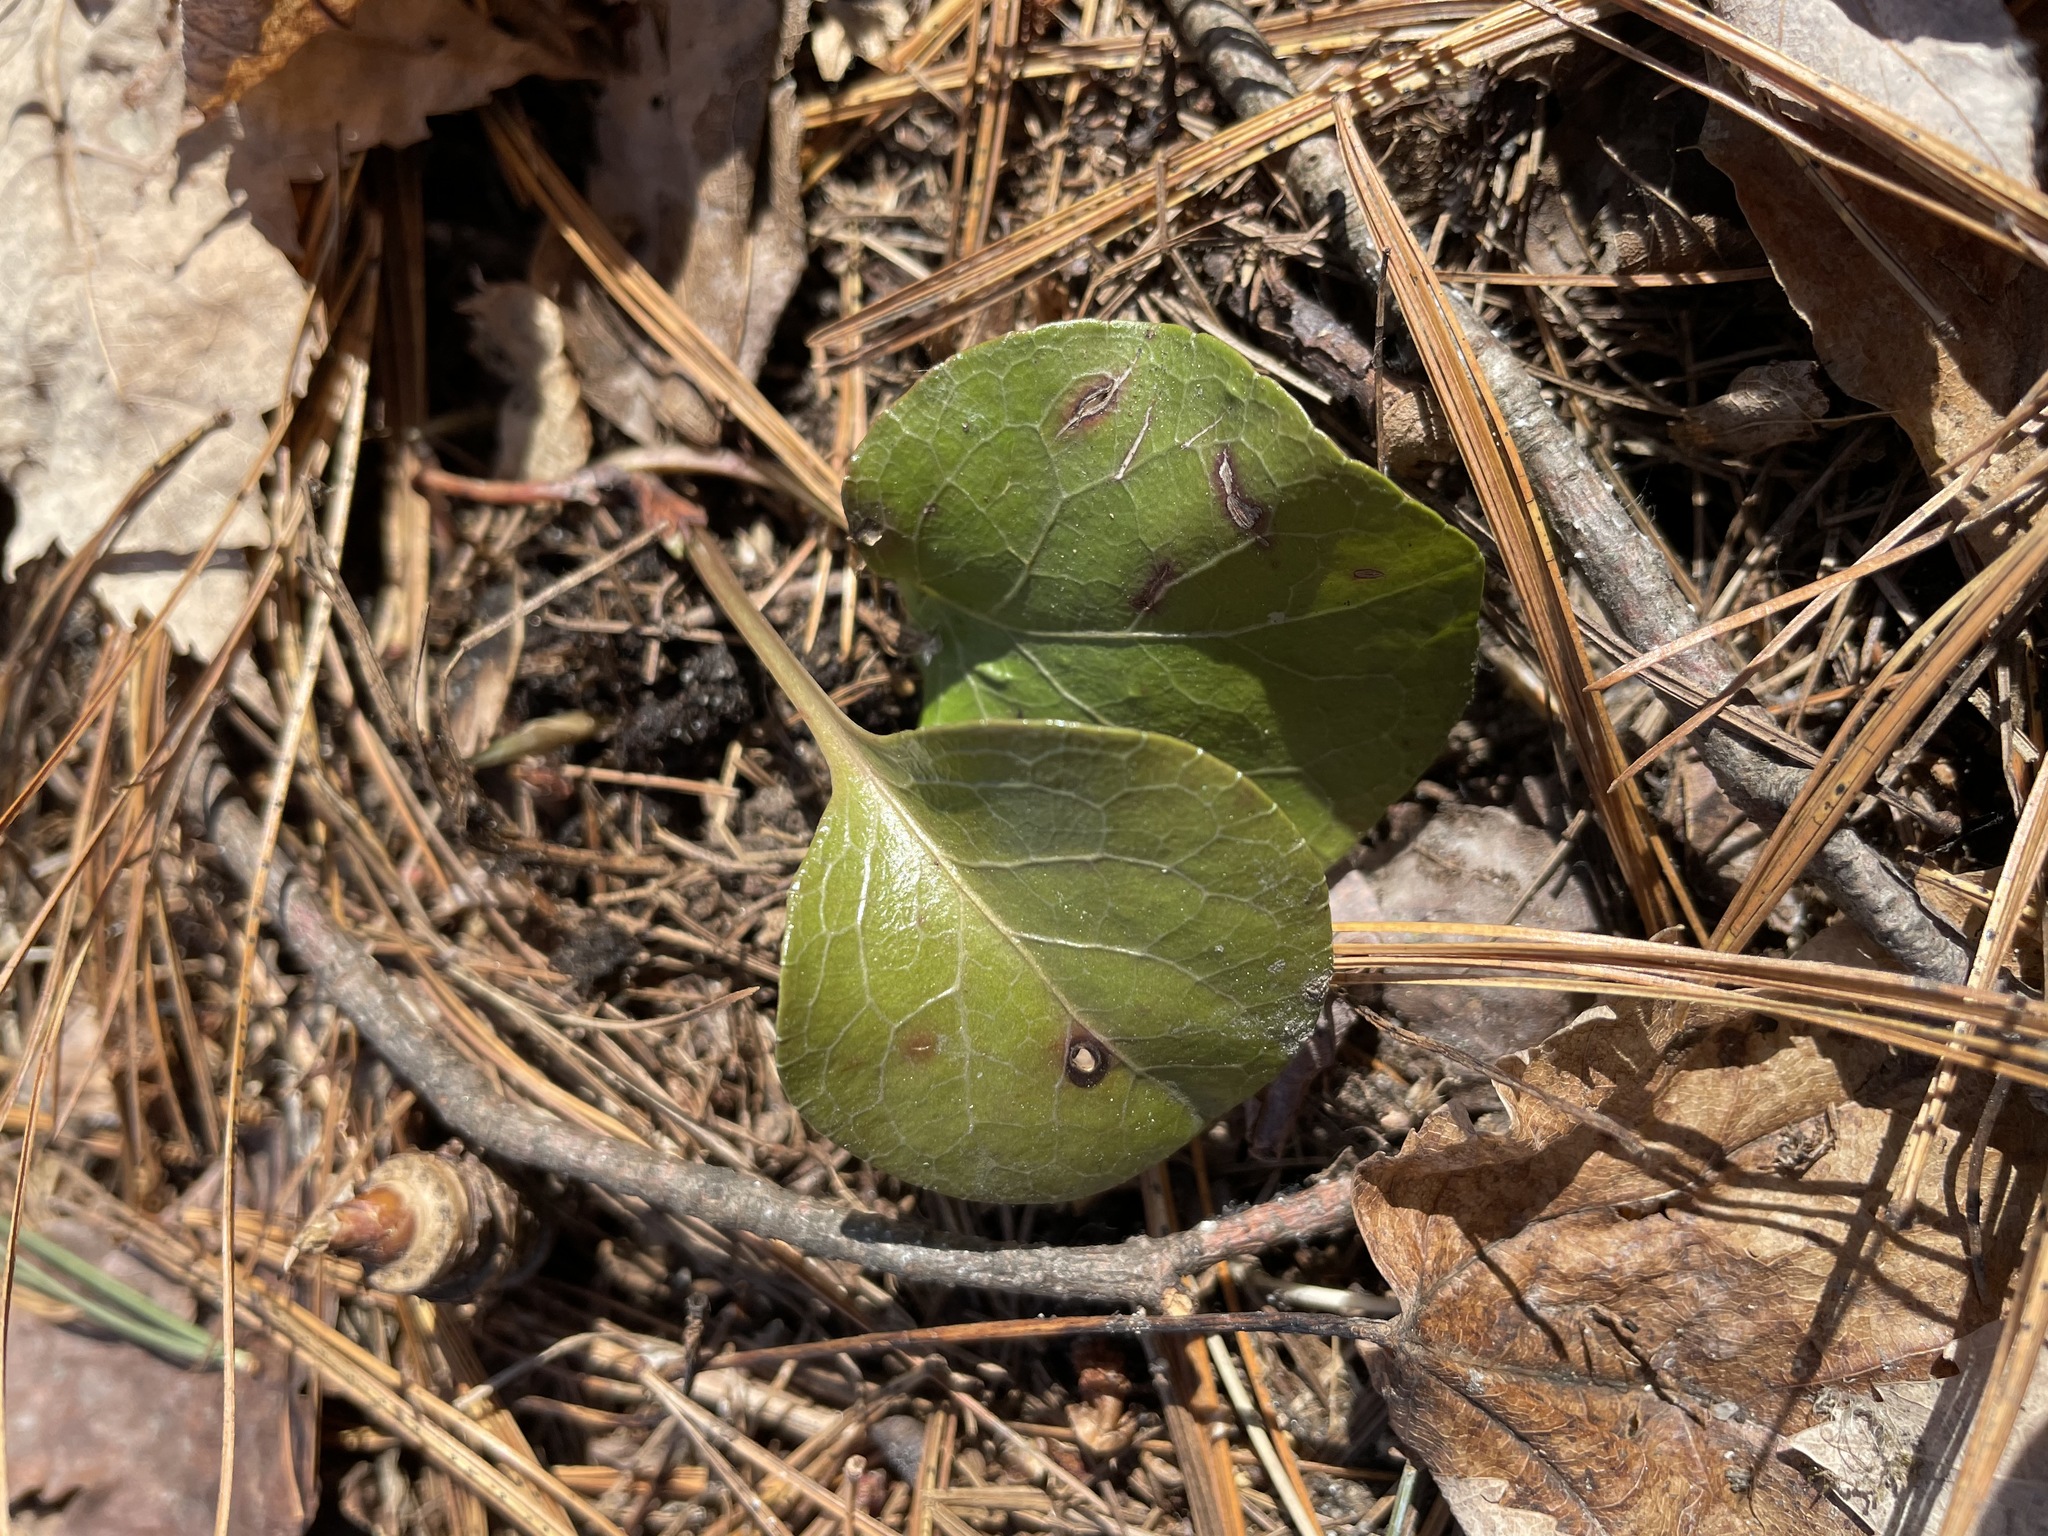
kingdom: Plantae
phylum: Tracheophyta
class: Magnoliopsida
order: Ericales
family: Ericaceae
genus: Pyrola
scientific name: Pyrola americana
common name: American wintergreen
